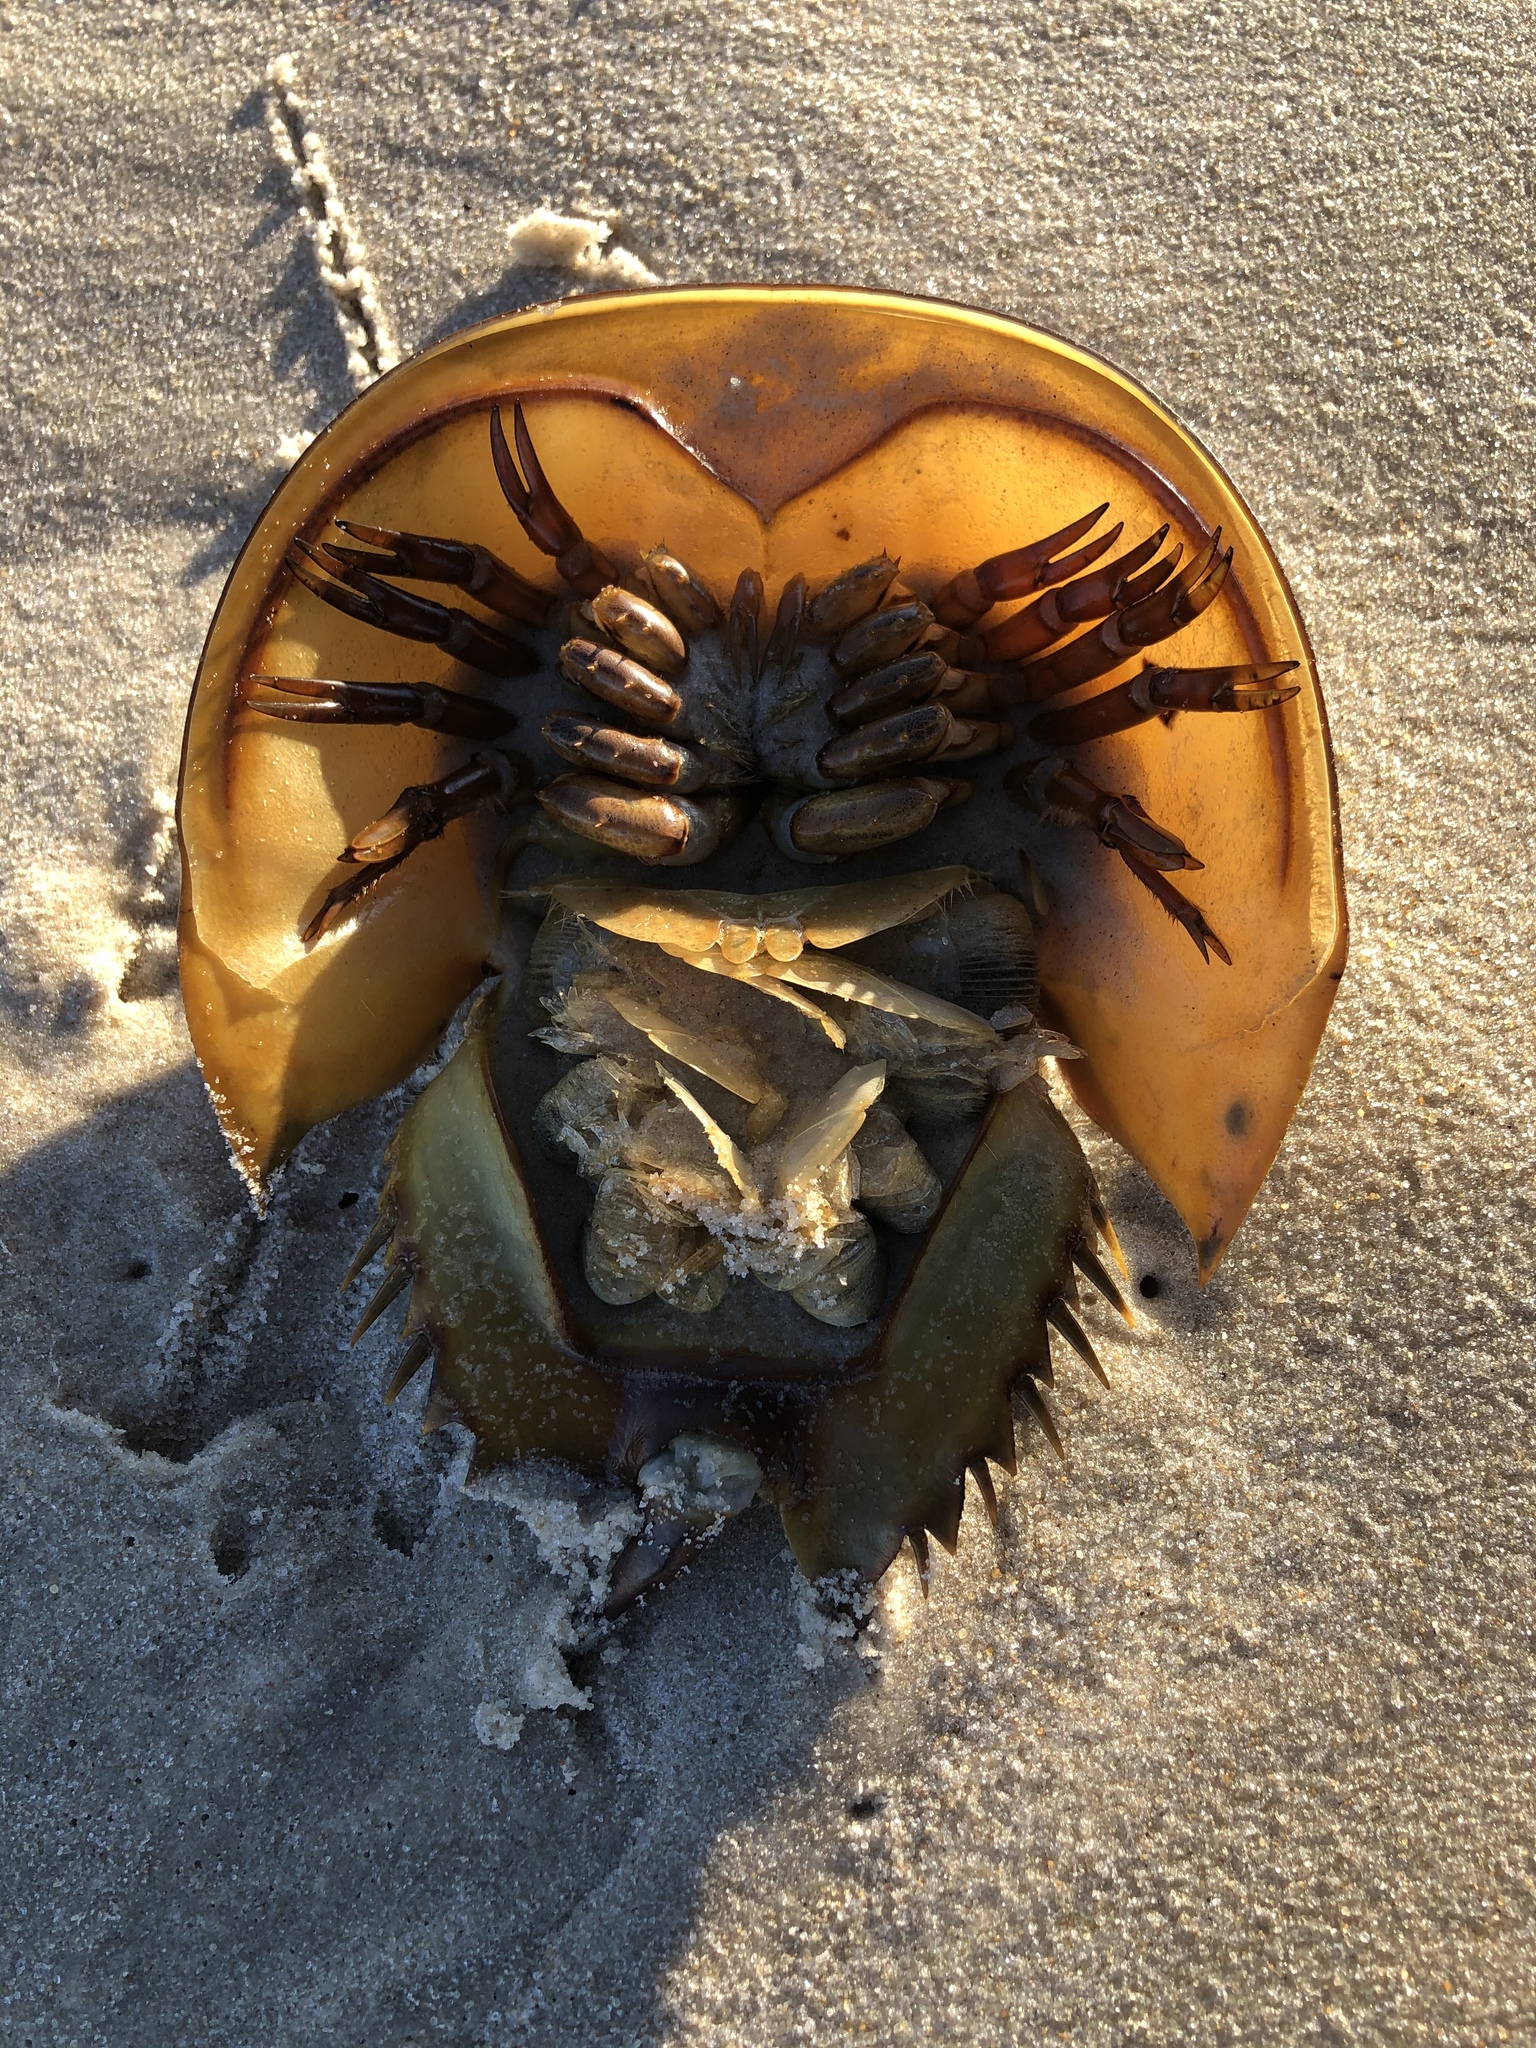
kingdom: Animalia
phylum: Arthropoda
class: Merostomata
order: Xiphosurida
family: Limulidae
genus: Limulus
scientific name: Limulus polyphemus
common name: Horseshoe crab
